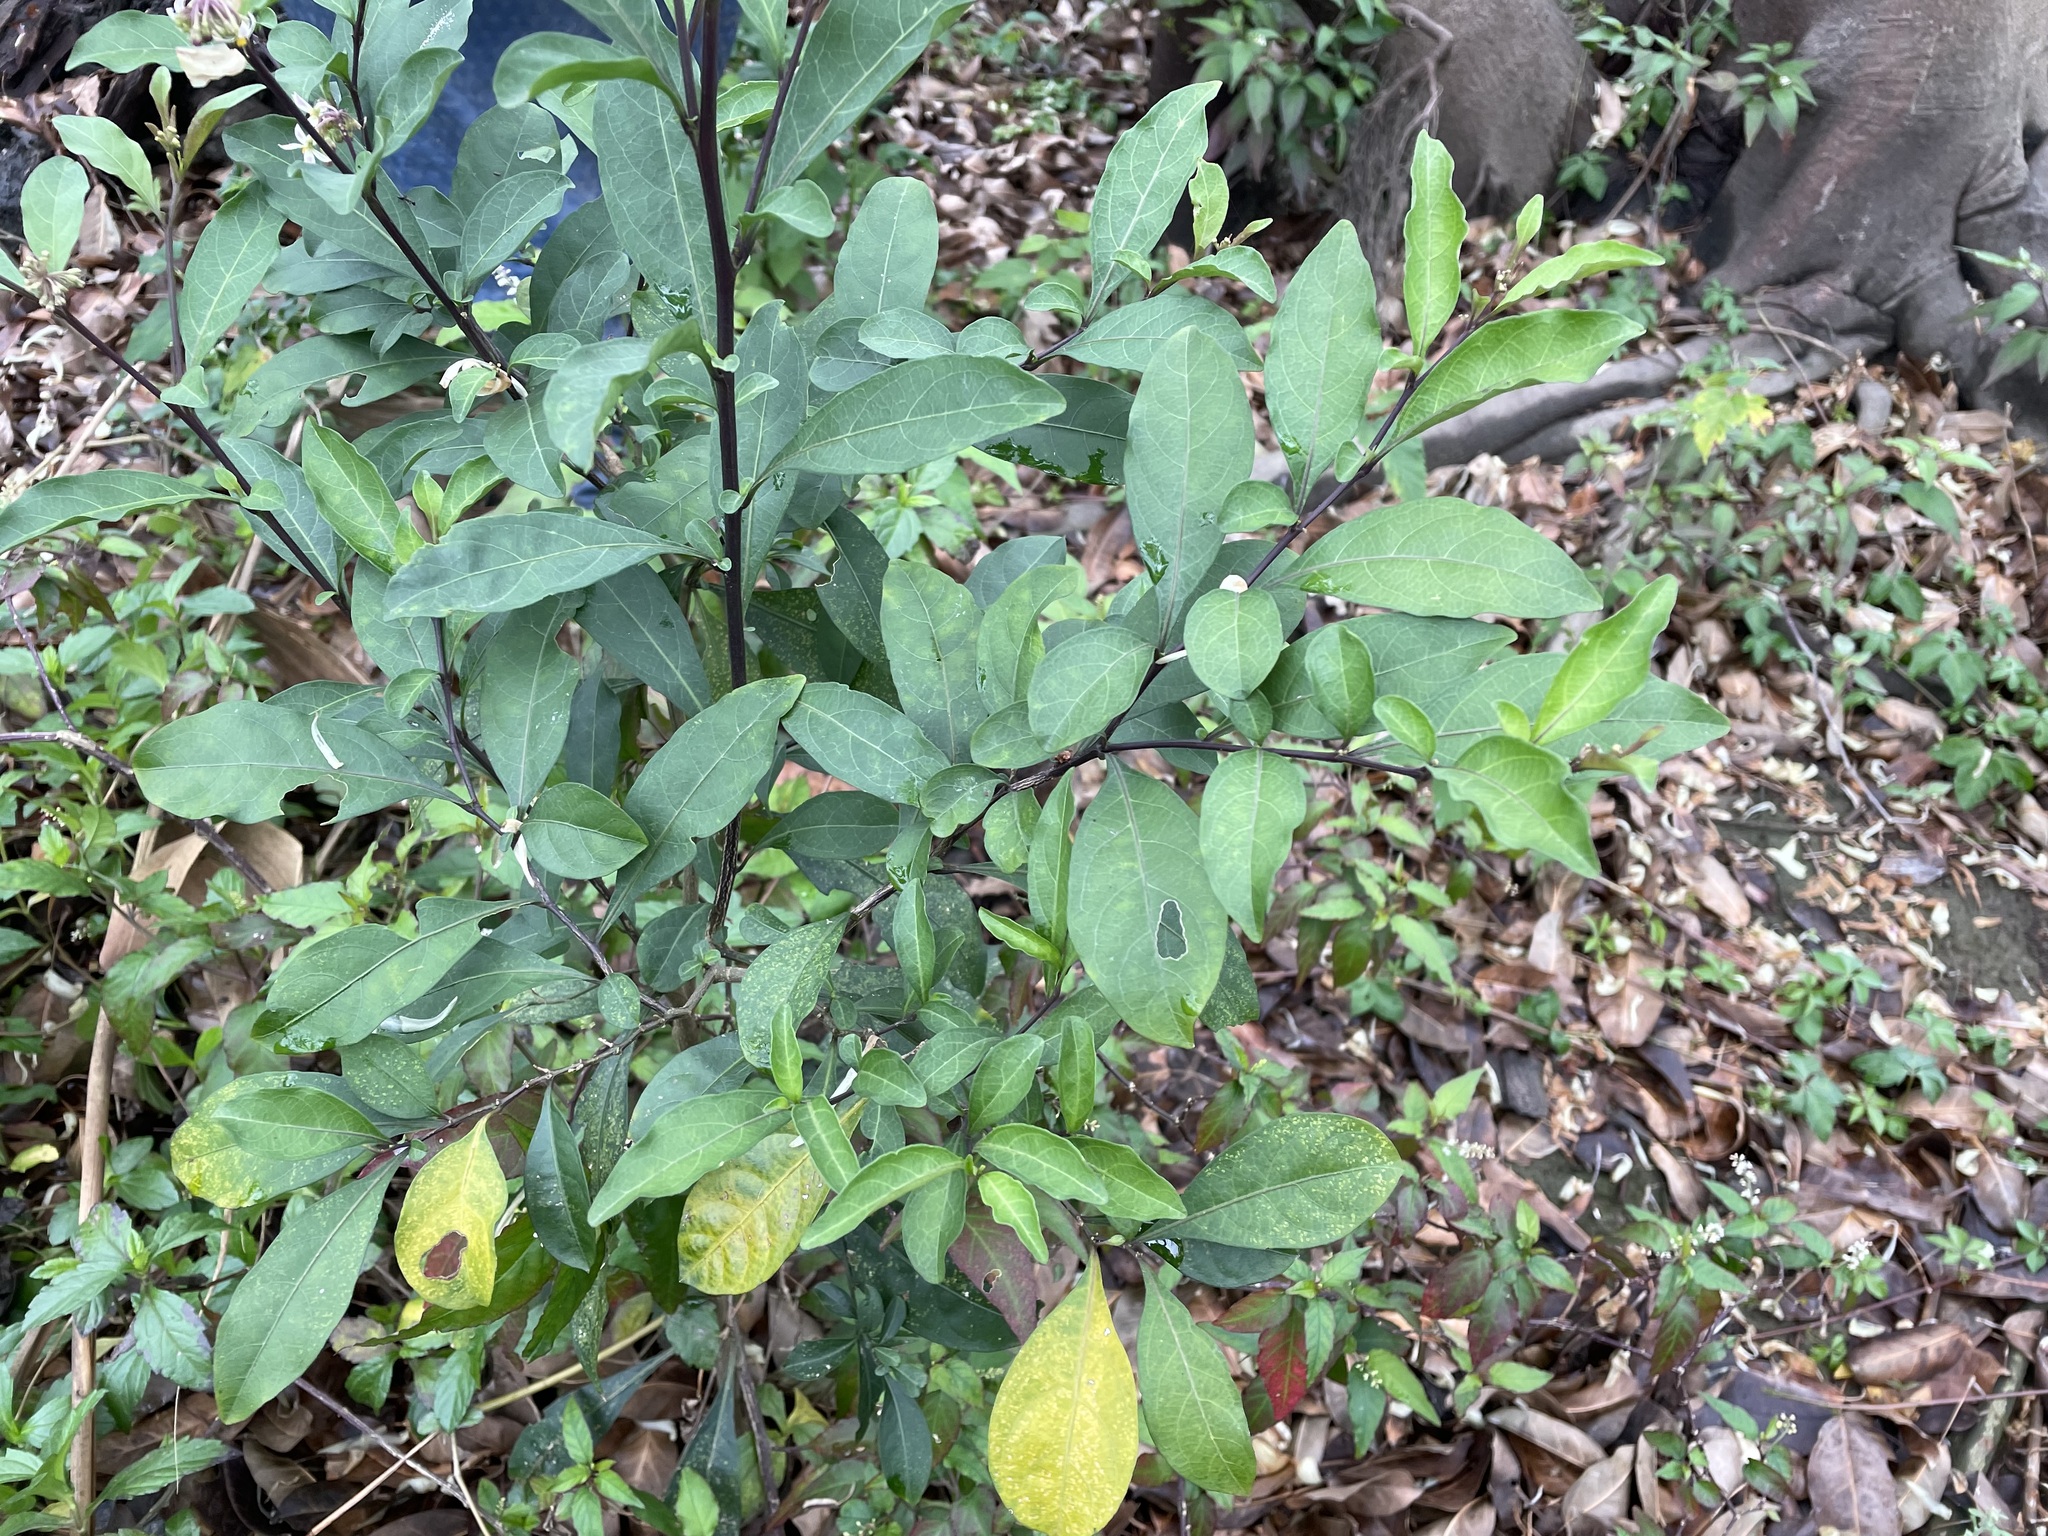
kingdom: Plantae
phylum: Tracheophyta
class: Magnoliopsida
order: Solanales
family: Solanaceae
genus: Solanum
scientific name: Solanum diphyllum
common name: Twoleaf nightshade
